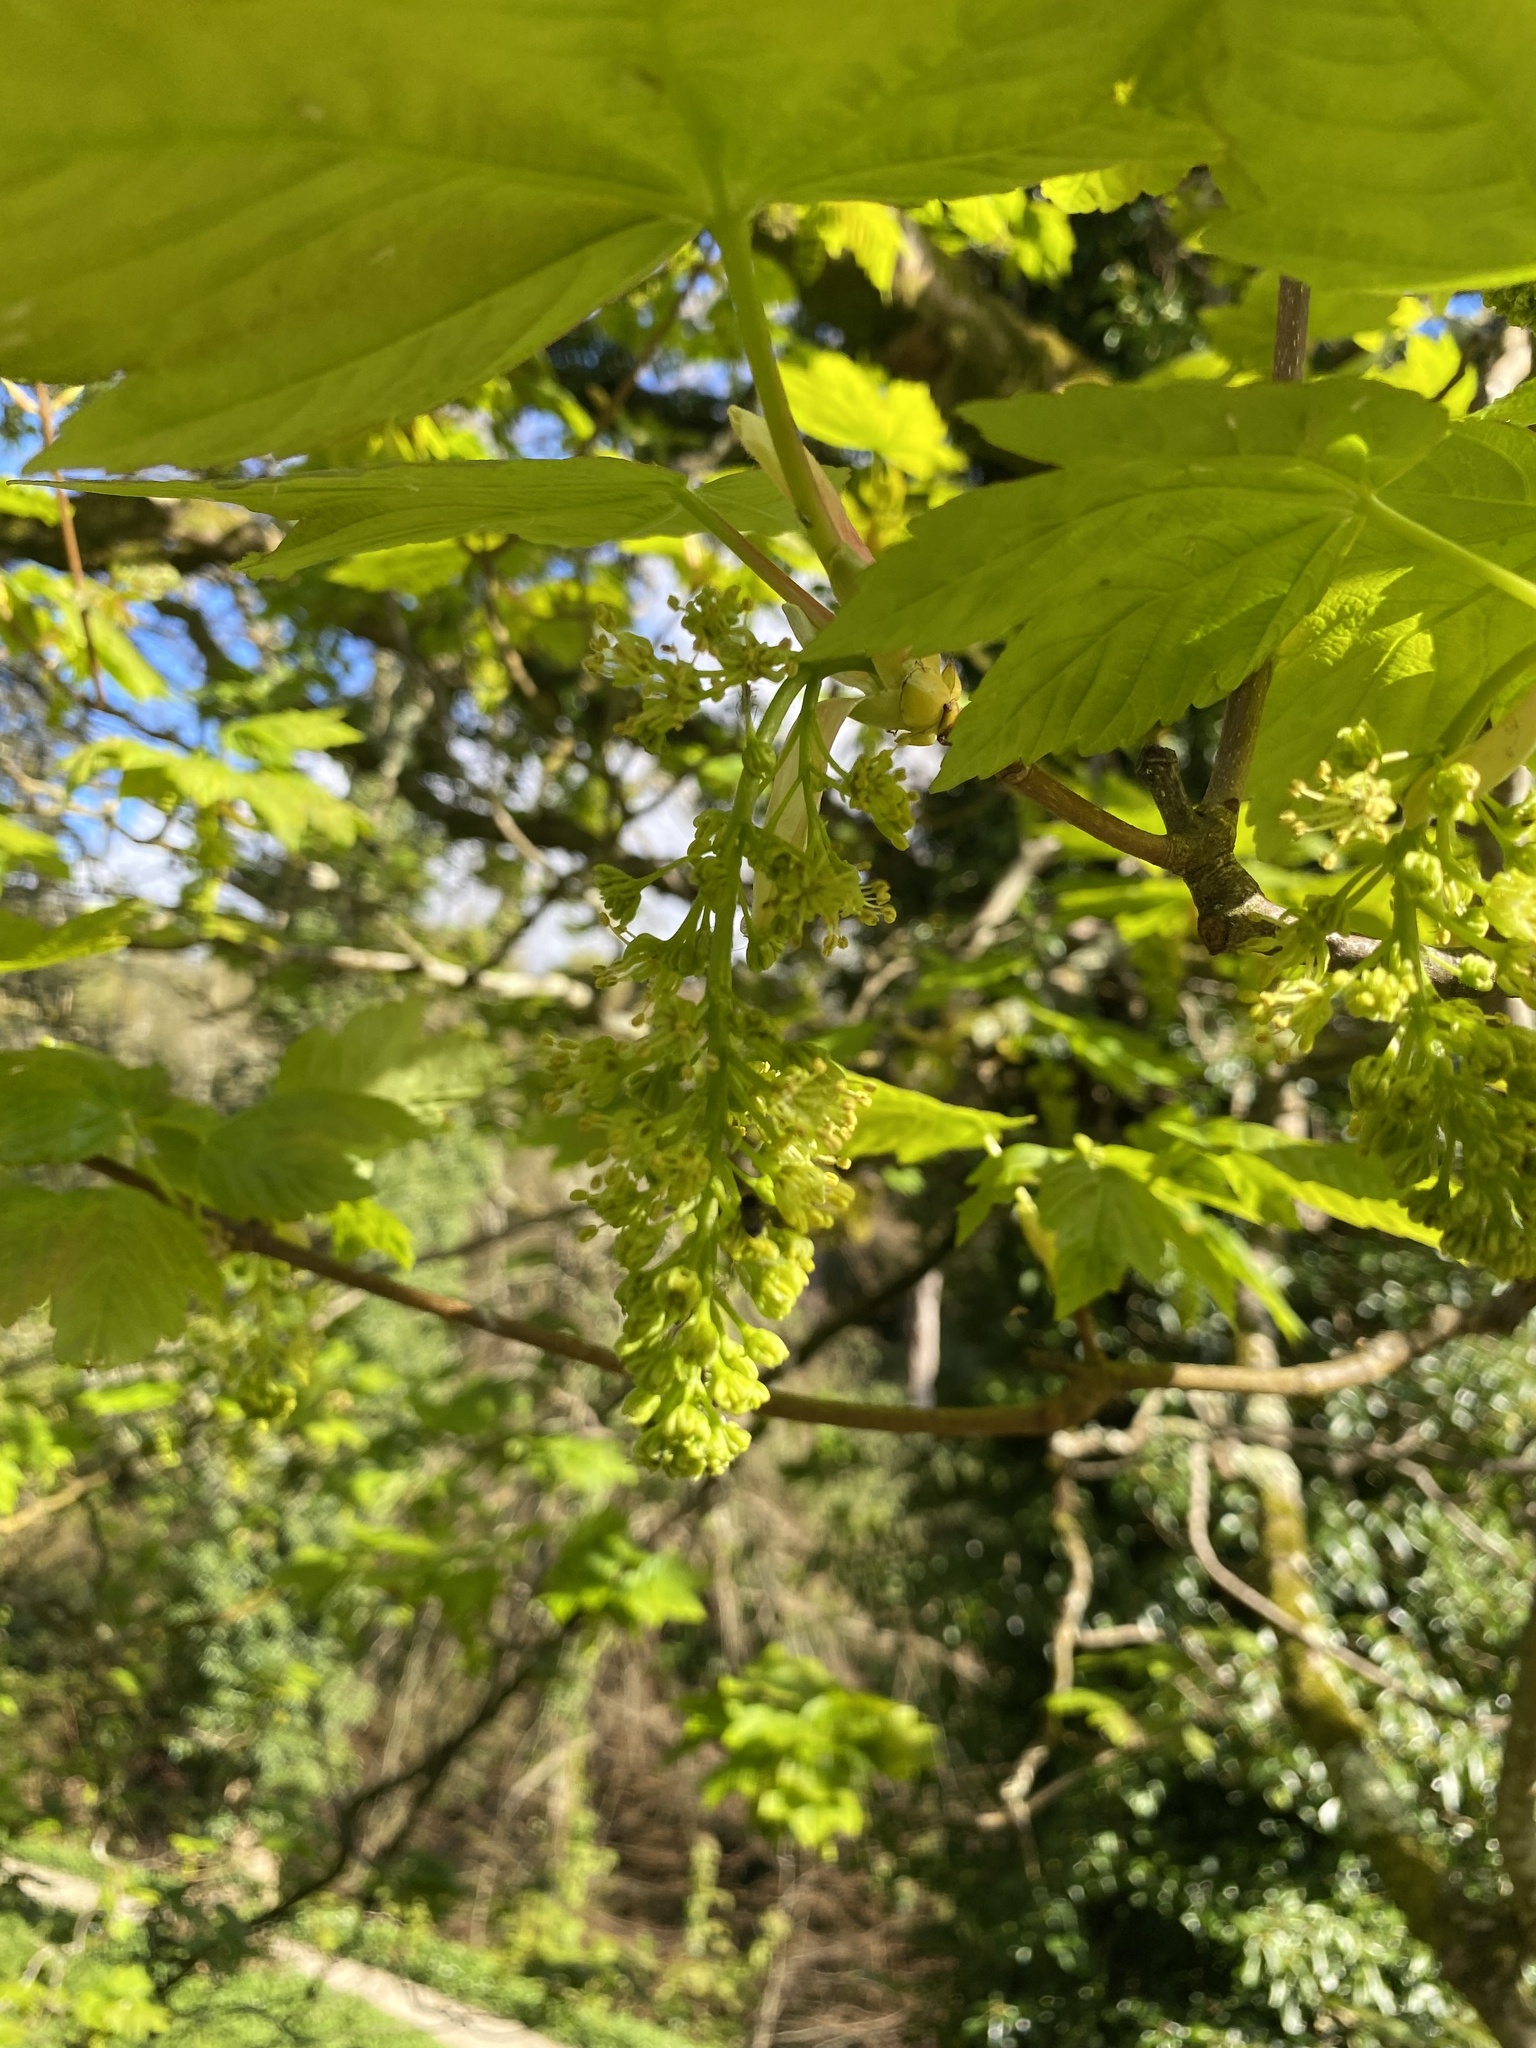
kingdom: Plantae
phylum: Tracheophyta
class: Magnoliopsida
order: Sapindales
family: Sapindaceae
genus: Acer
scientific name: Acer pseudoplatanus
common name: Sycamore
